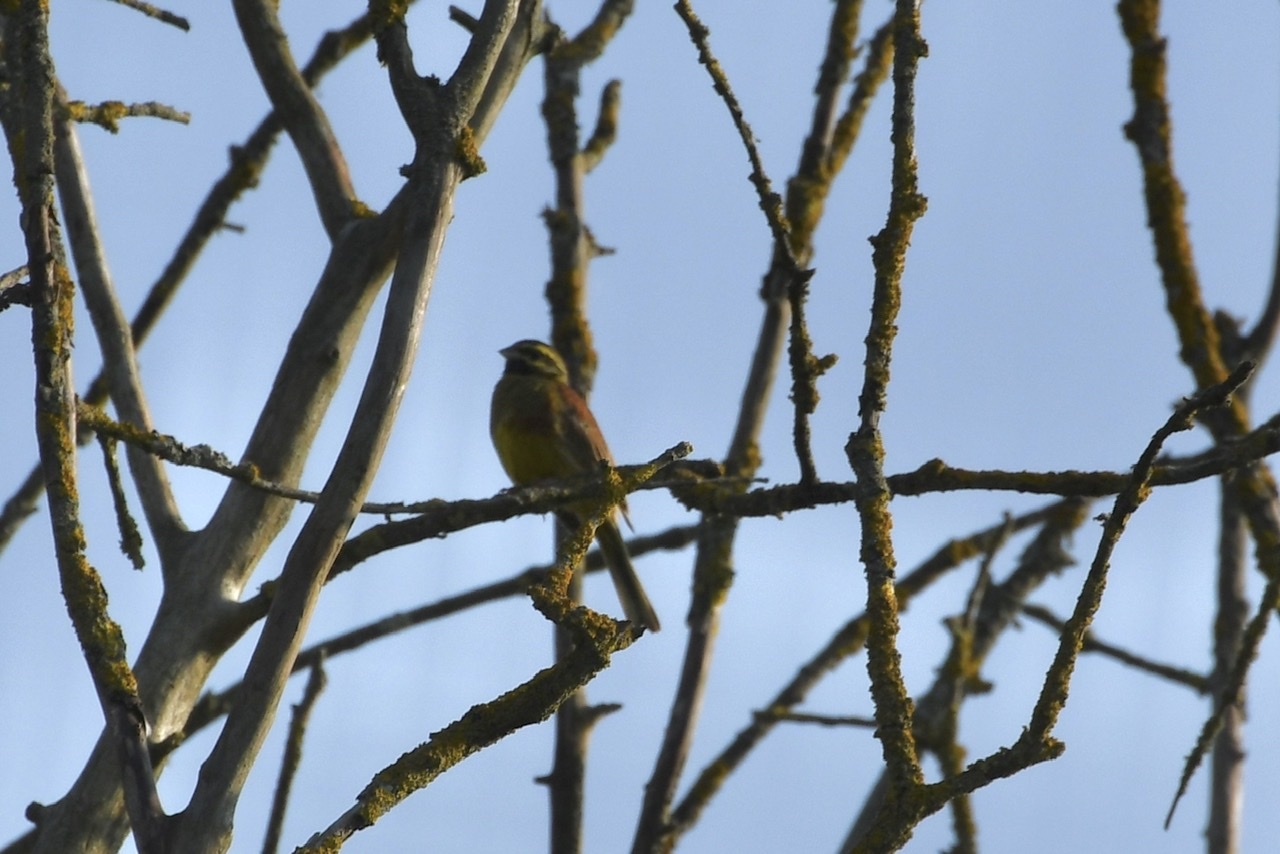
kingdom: Animalia
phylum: Chordata
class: Aves
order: Passeriformes
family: Emberizidae
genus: Emberiza
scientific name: Emberiza cirlus
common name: Cirl bunting
